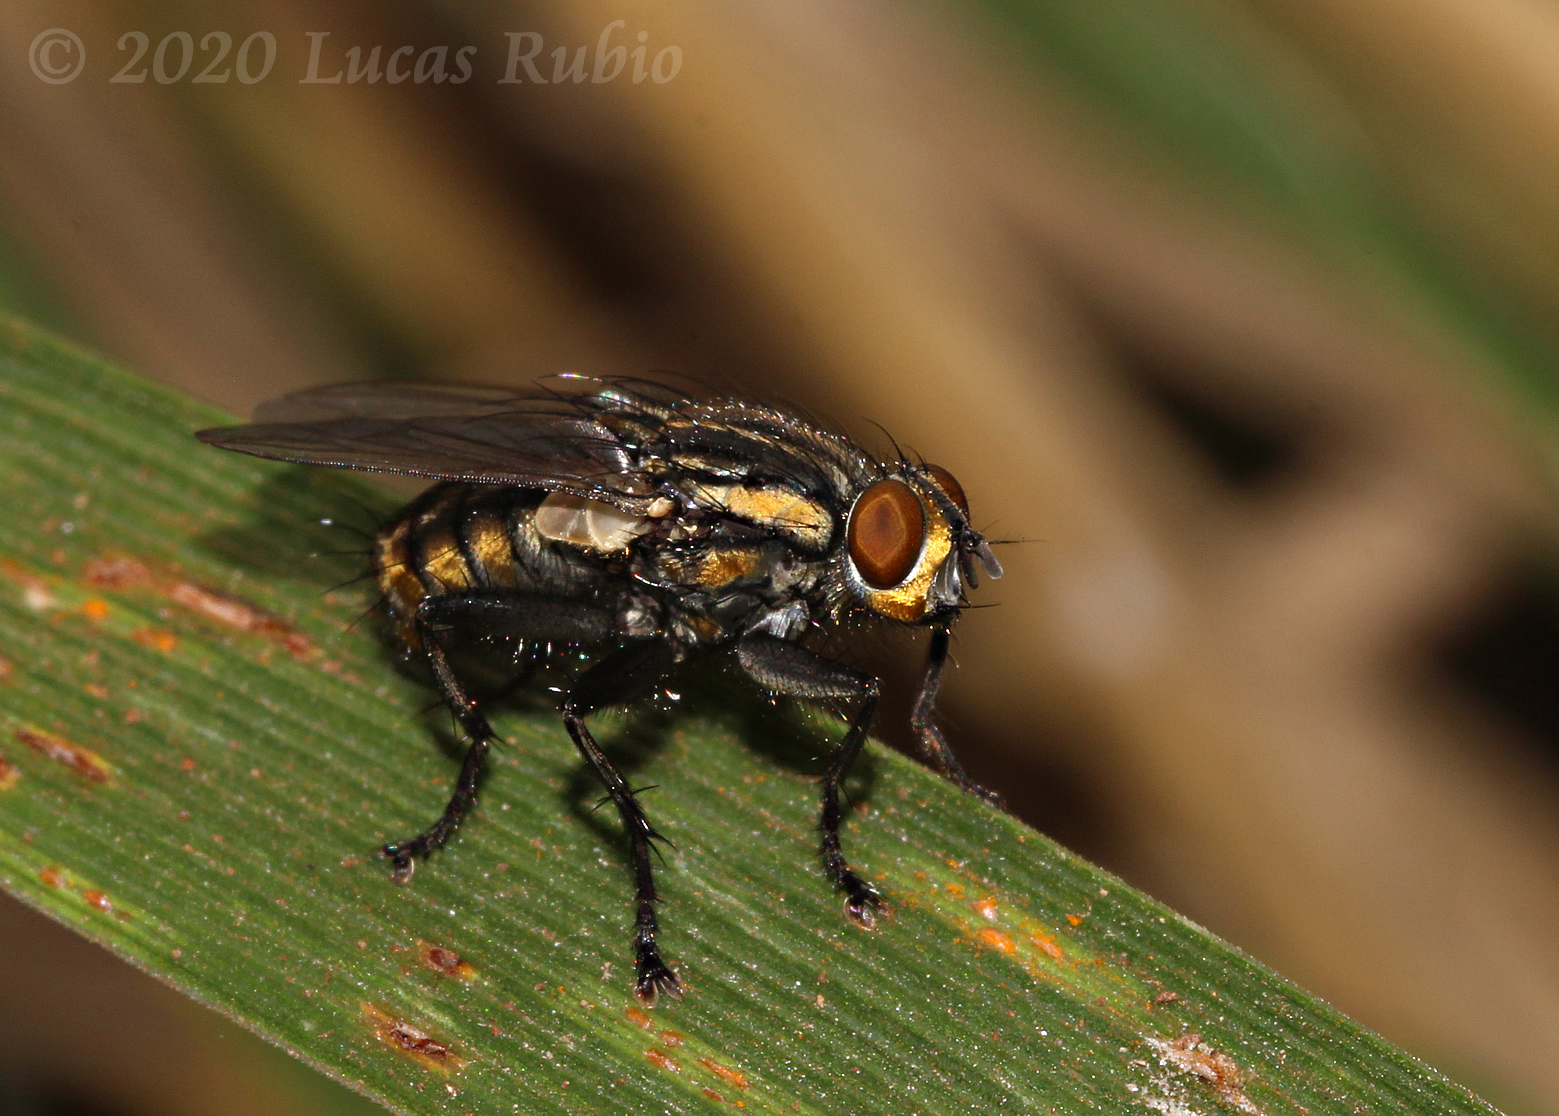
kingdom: Animalia
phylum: Arthropoda
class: Insecta
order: Diptera
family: Sarcophagidae
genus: Oxysarcodexia
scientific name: Oxysarcodexia varia
